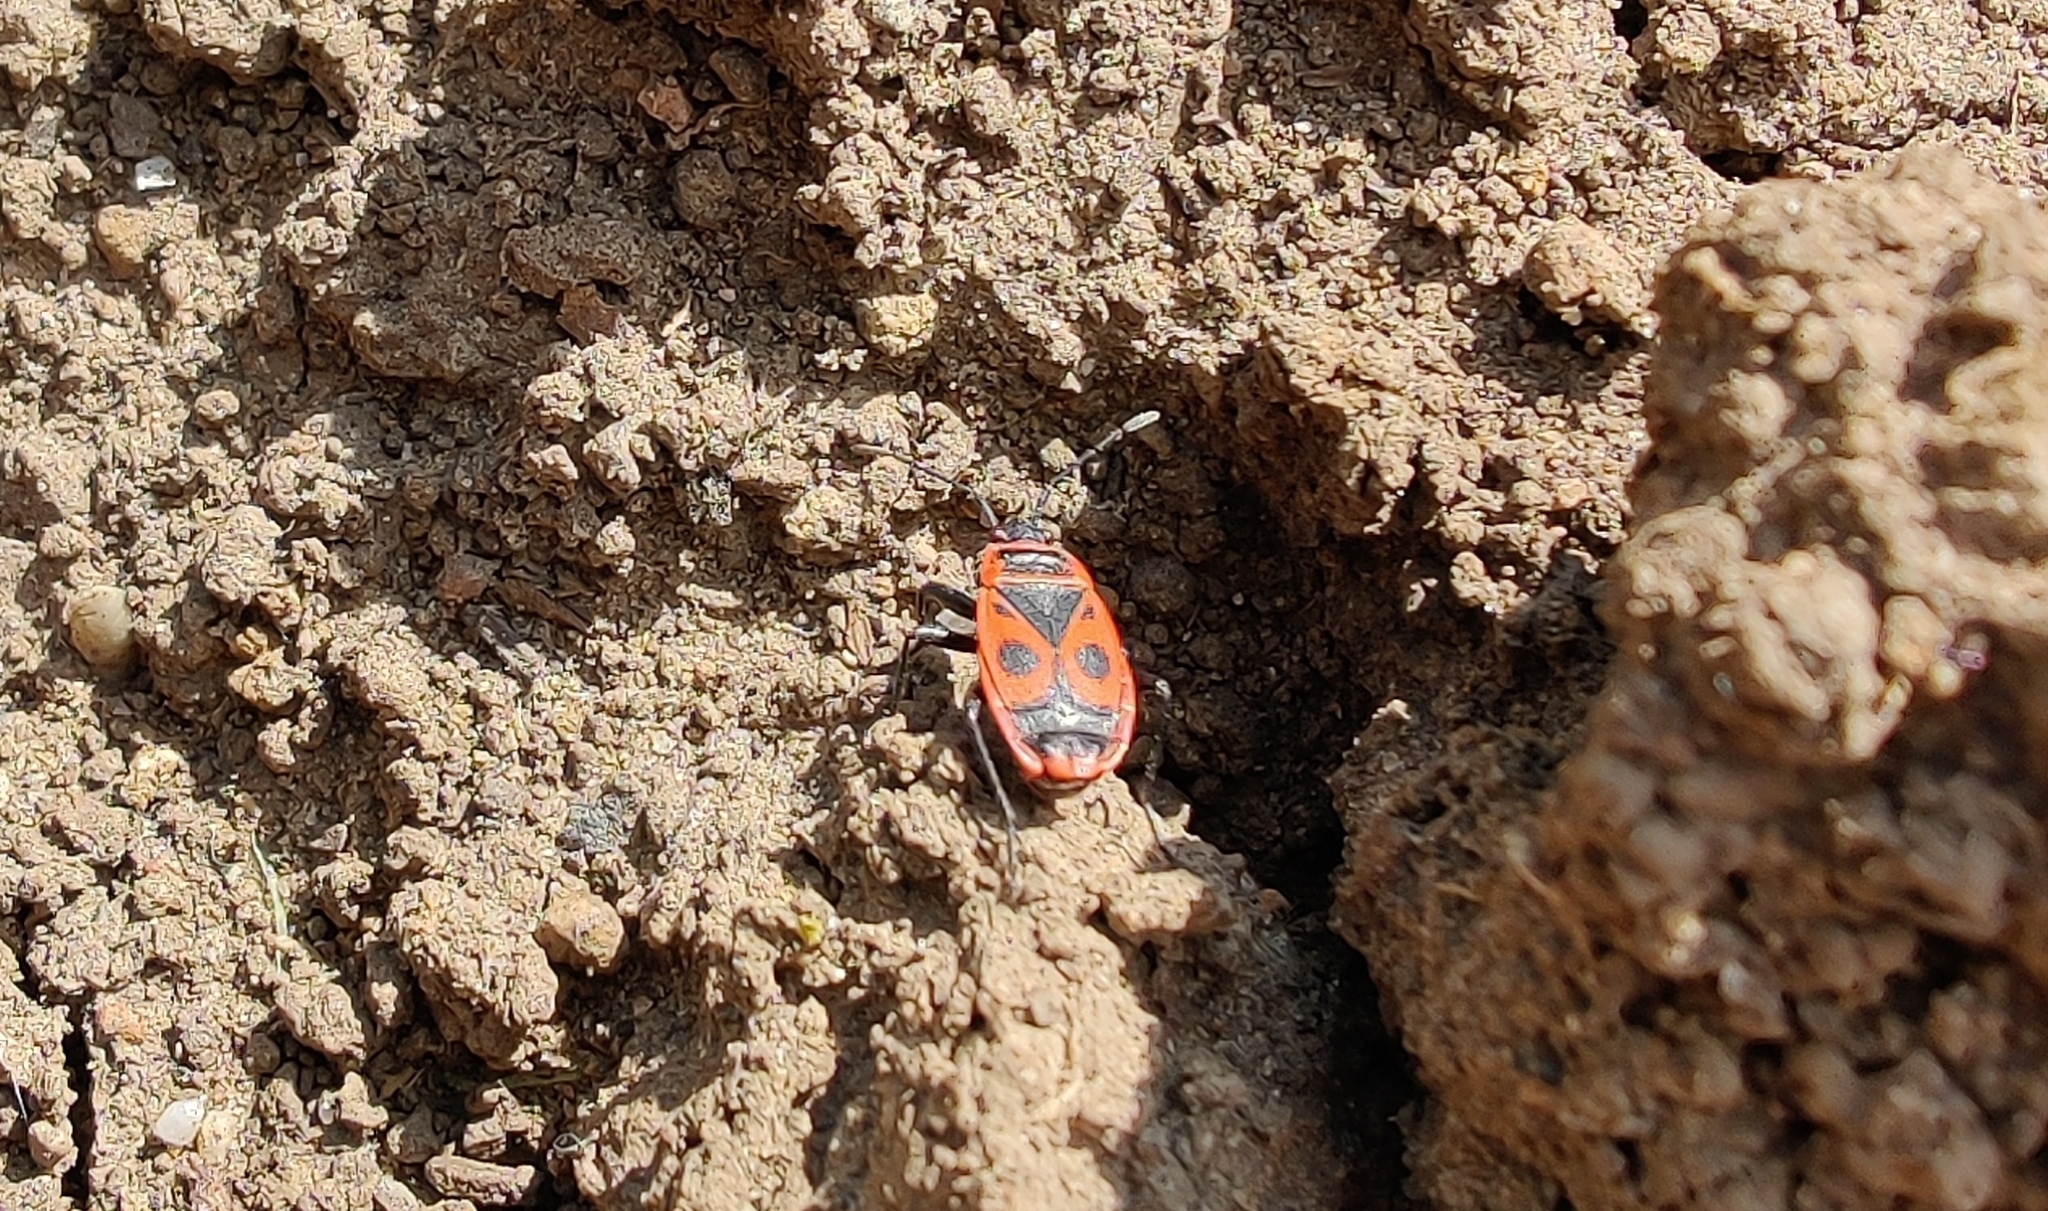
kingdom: Animalia
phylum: Arthropoda
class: Insecta
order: Hemiptera
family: Pyrrhocoridae
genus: Pyrrhocoris
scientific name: Pyrrhocoris apterus
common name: Firebug
